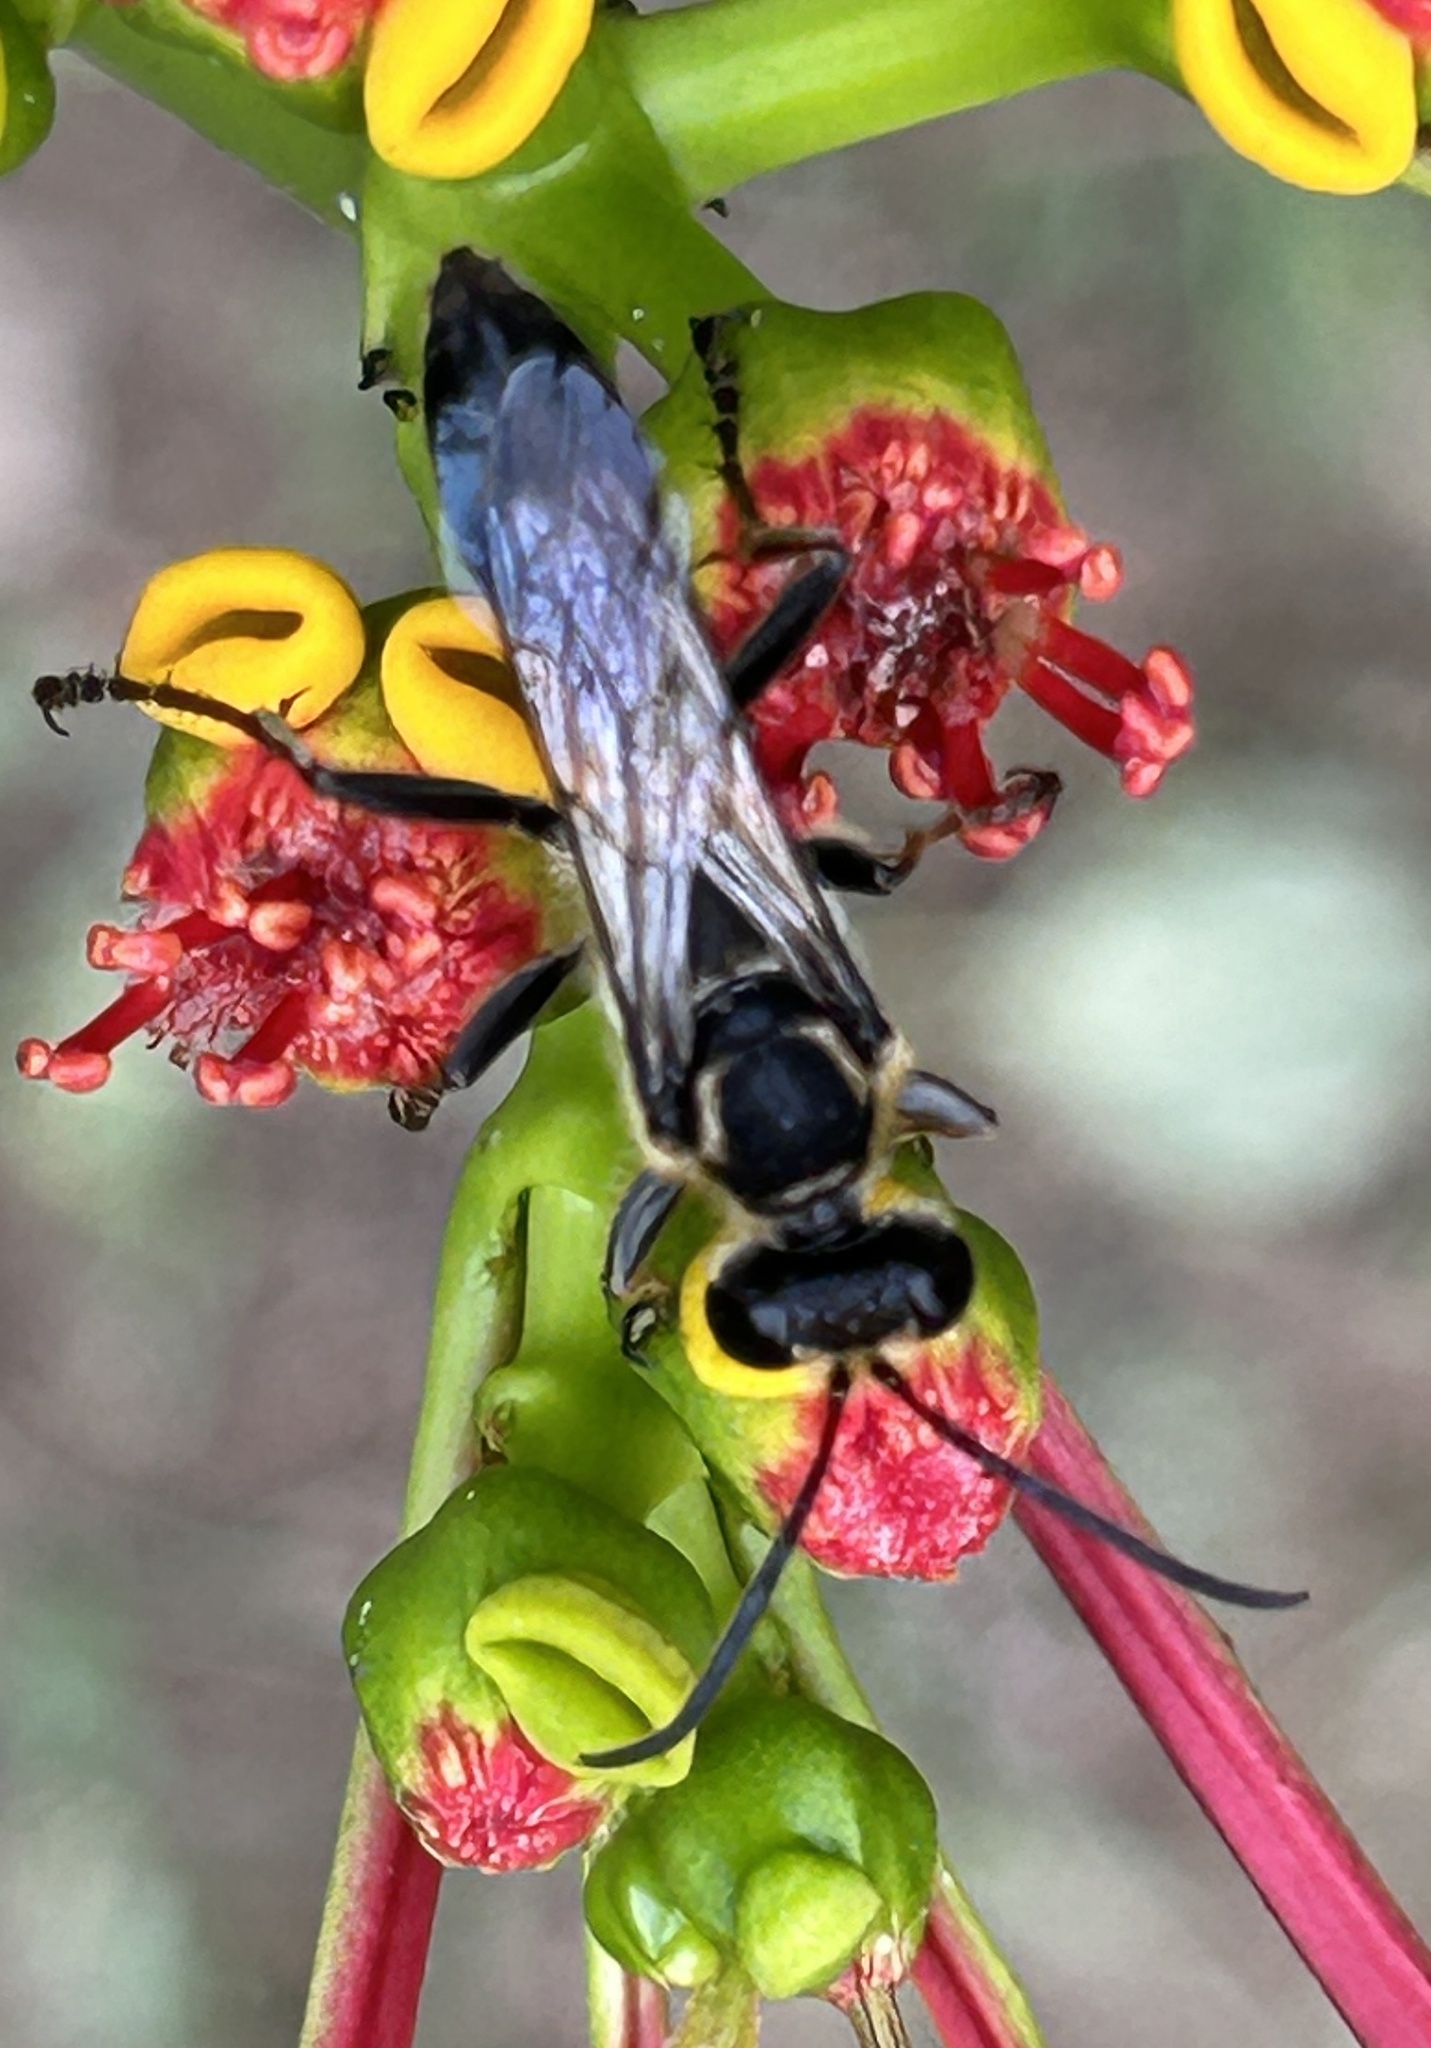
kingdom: Animalia
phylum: Arthropoda
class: Insecta
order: Hymenoptera
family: Sphecidae
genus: Sphex
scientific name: Sphex dorsalis
